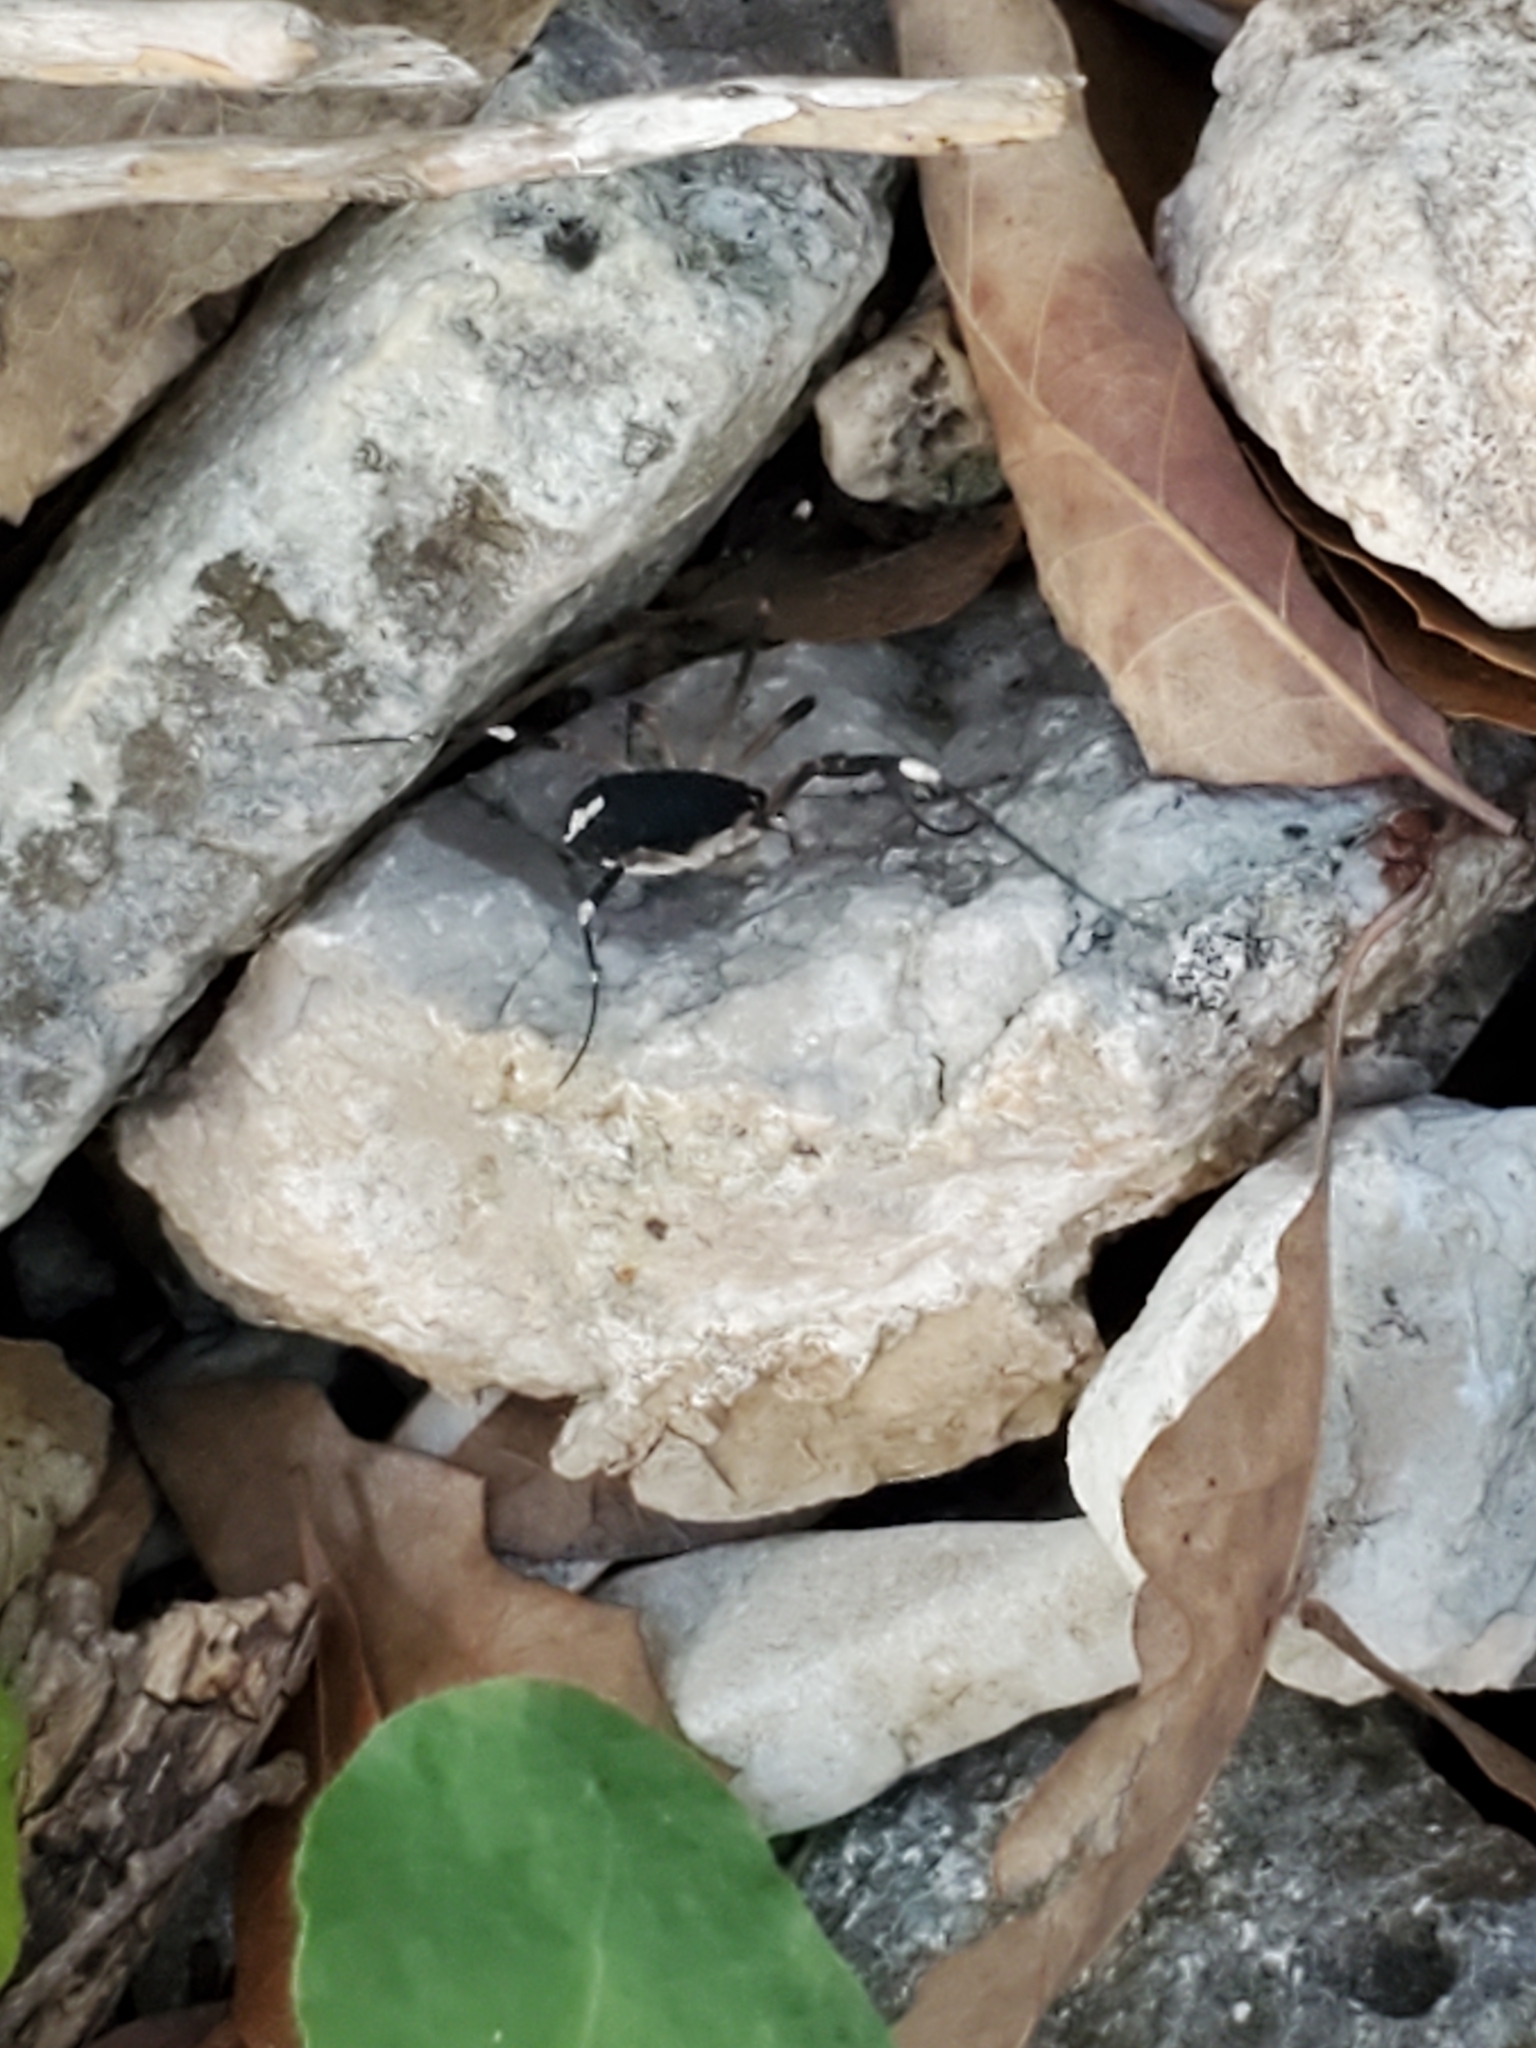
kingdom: Animalia
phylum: Arthropoda
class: Arachnida
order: Opiliones
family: Globipedidae
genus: Dalquestia
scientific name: Dalquestia formosa
